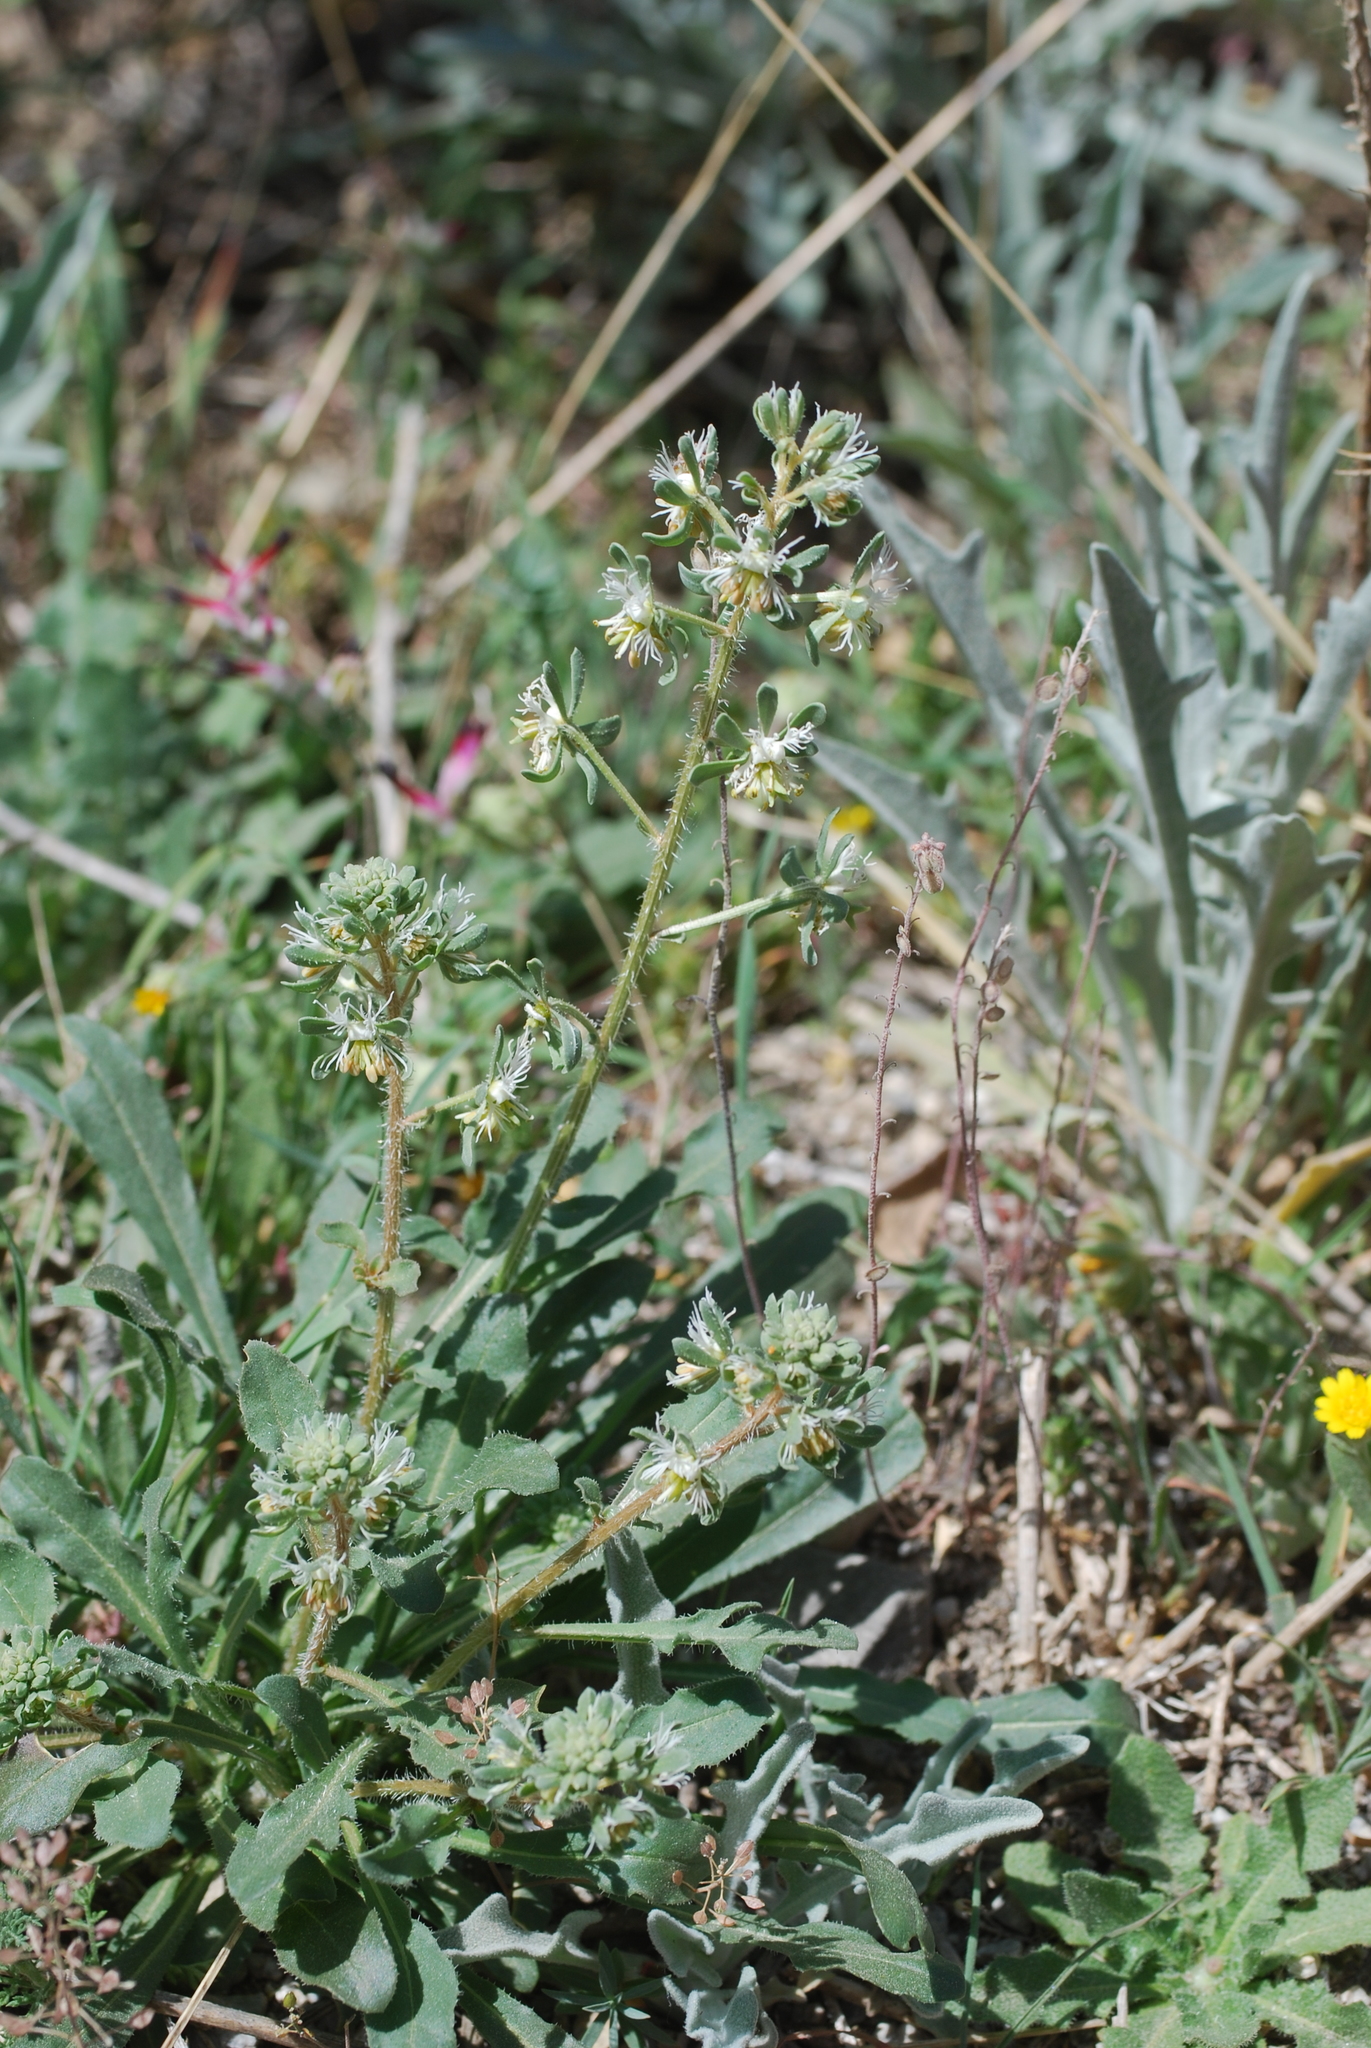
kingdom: Plantae
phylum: Tracheophyta
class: Magnoliopsida
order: Brassicales
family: Resedaceae
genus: Reseda
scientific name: Reseda phyteuma
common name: Corn mignonette
